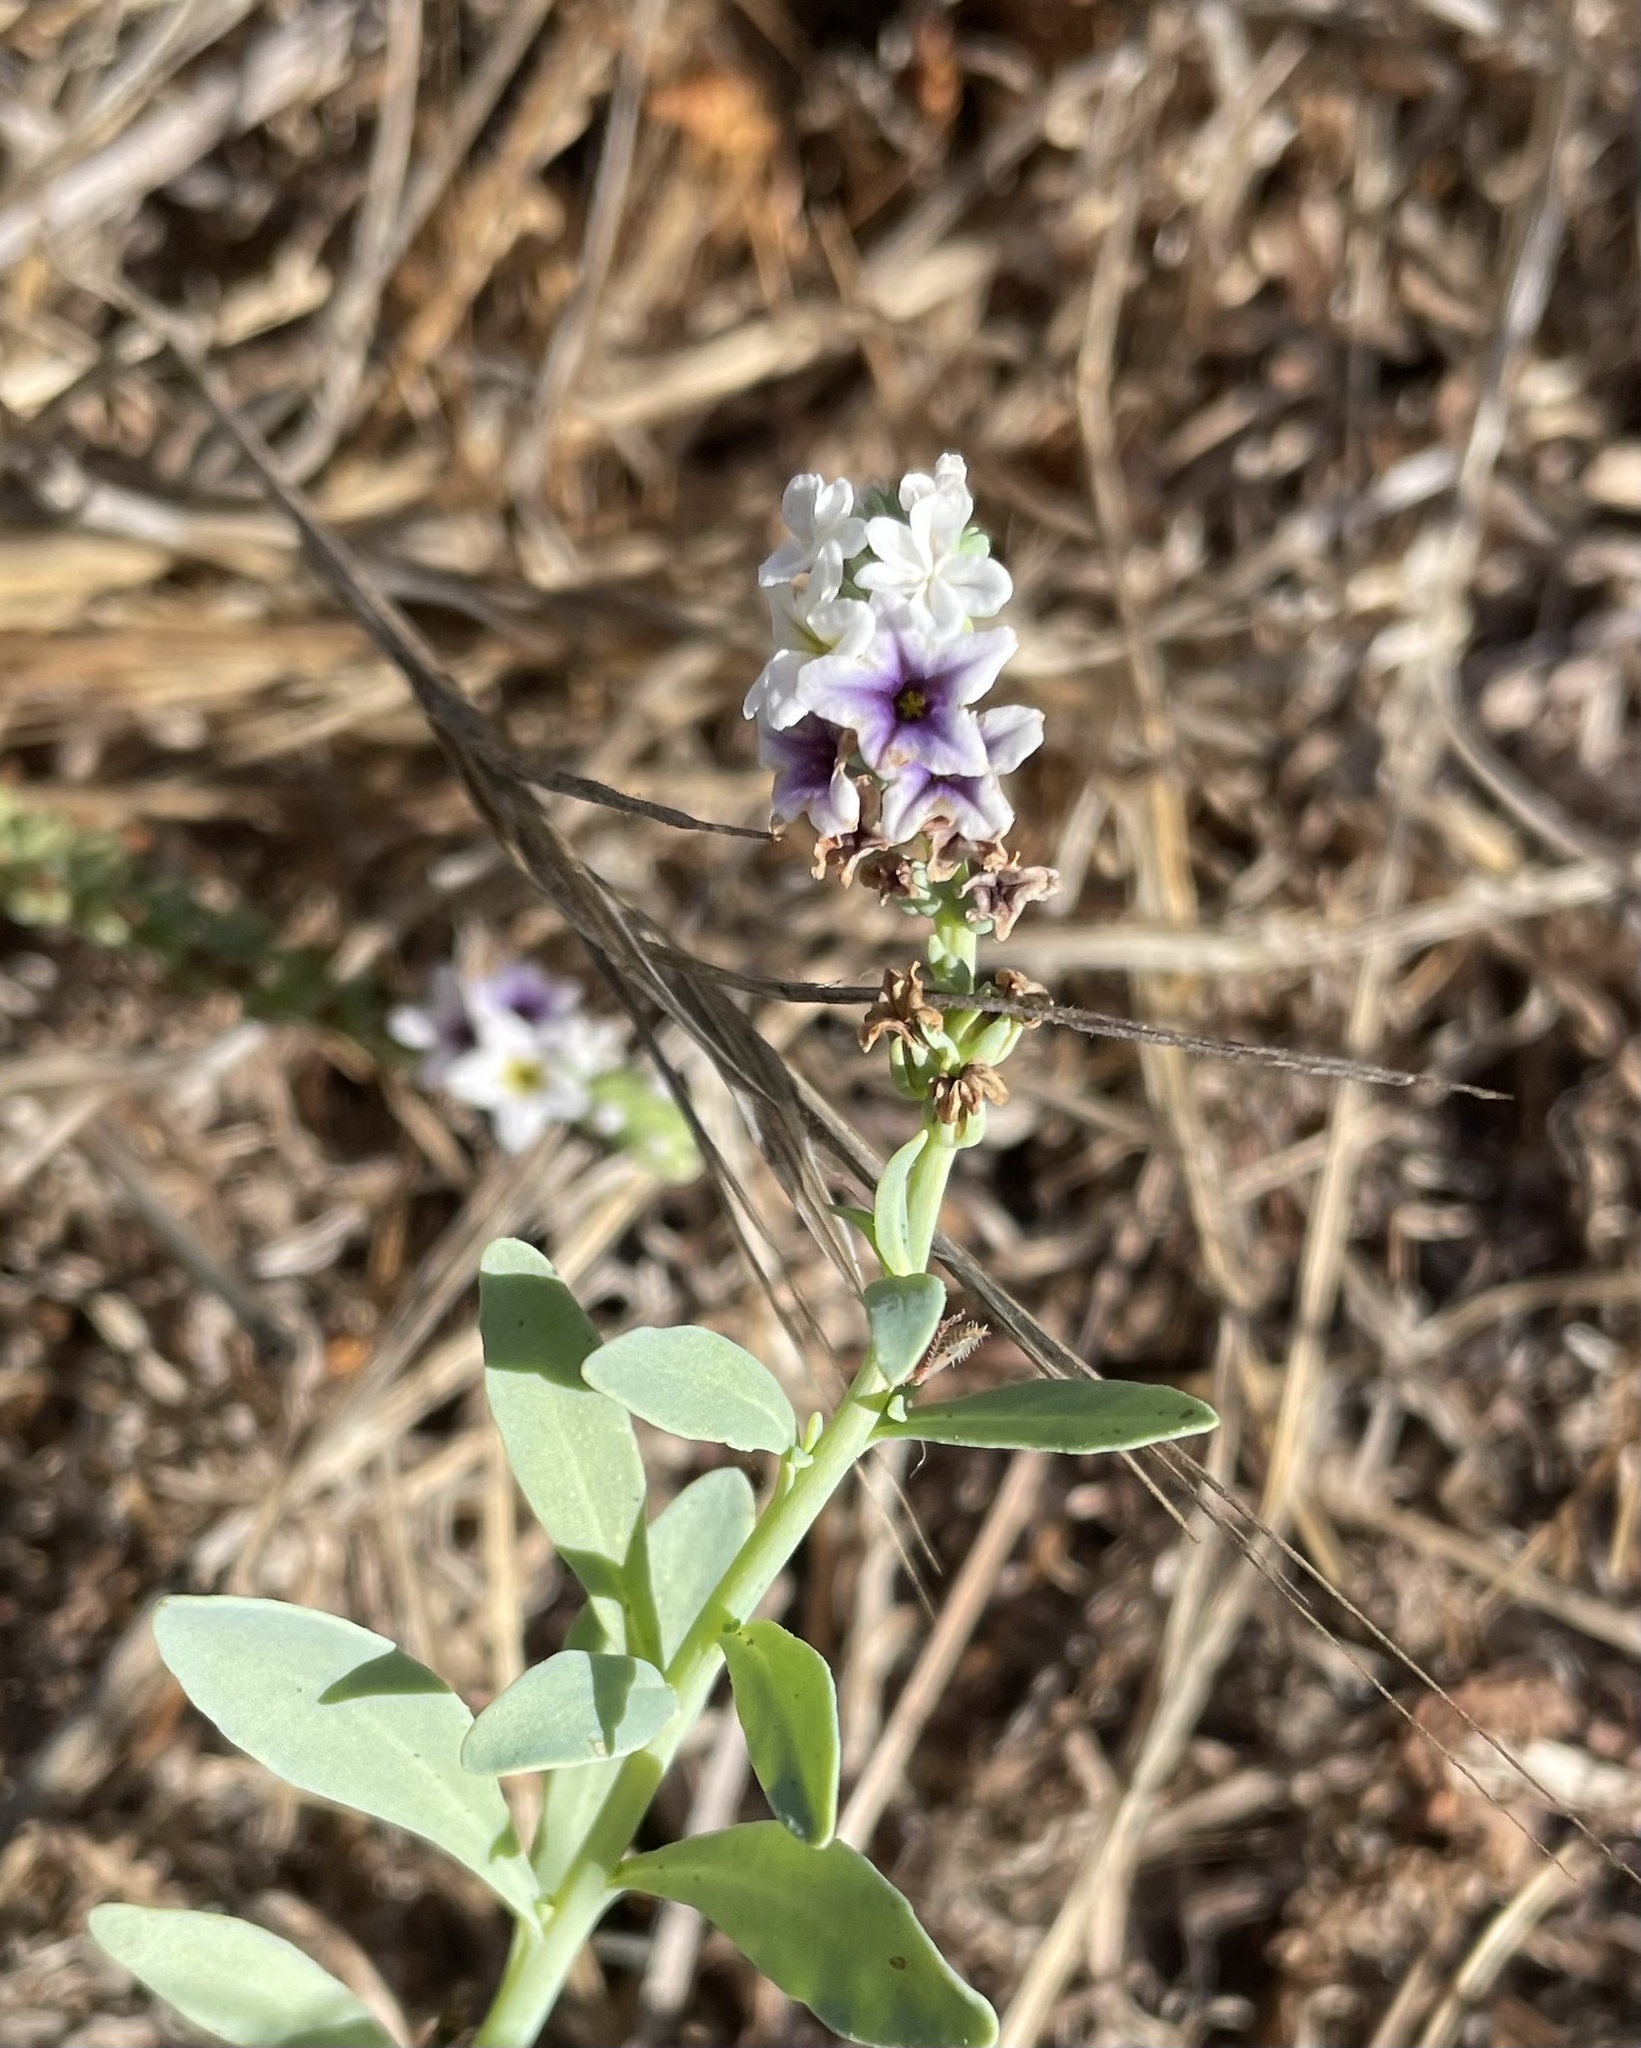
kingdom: Plantae
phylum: Tracheophyta
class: Magnoliopsida
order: Boraginales
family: Heliotropiaceae
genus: Heliotropium
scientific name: Heliotropium curassavicum
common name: Seaside heliotrope
